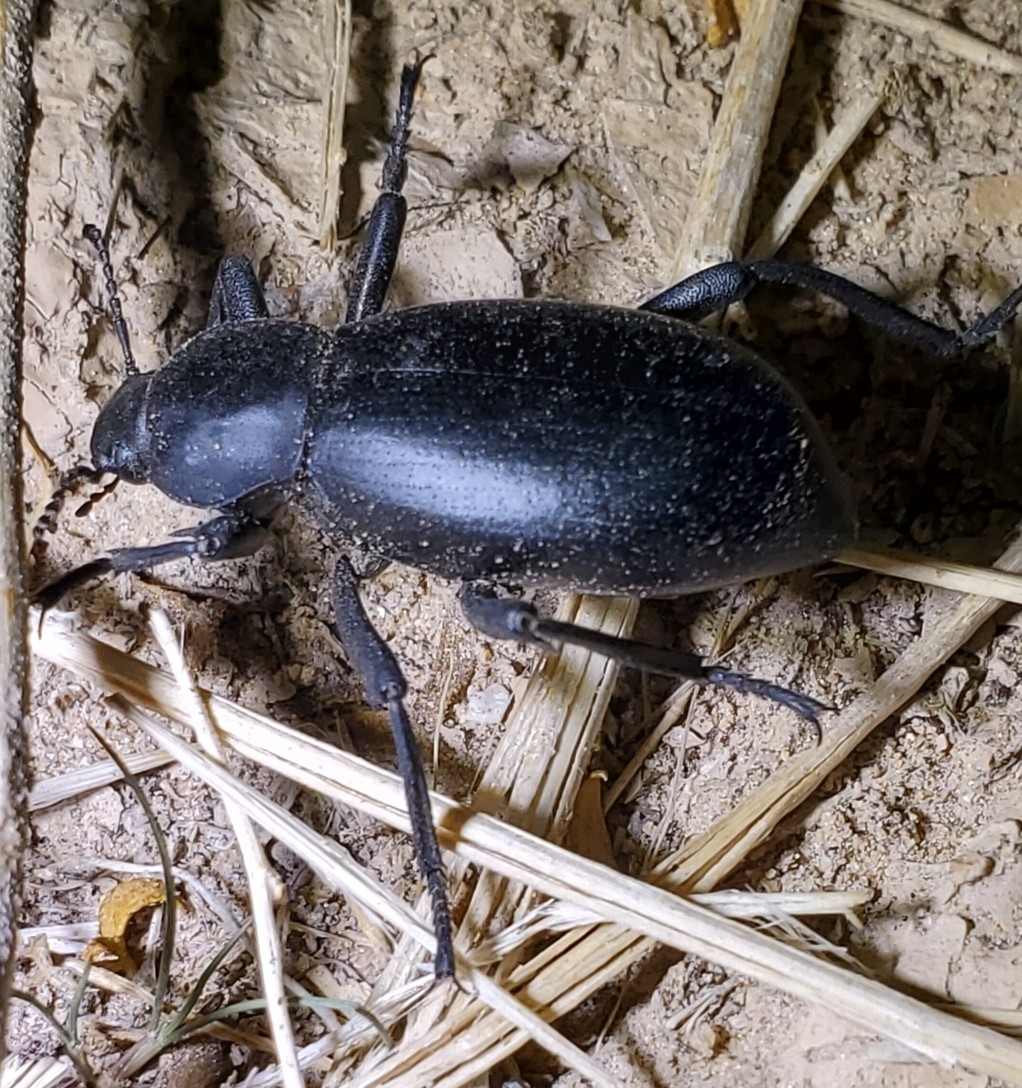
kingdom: Animalia
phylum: Arthropoda
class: Insecta
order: Coleoptera
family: Tenebrionidae
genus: Eleodes
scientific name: Eleodes armata
